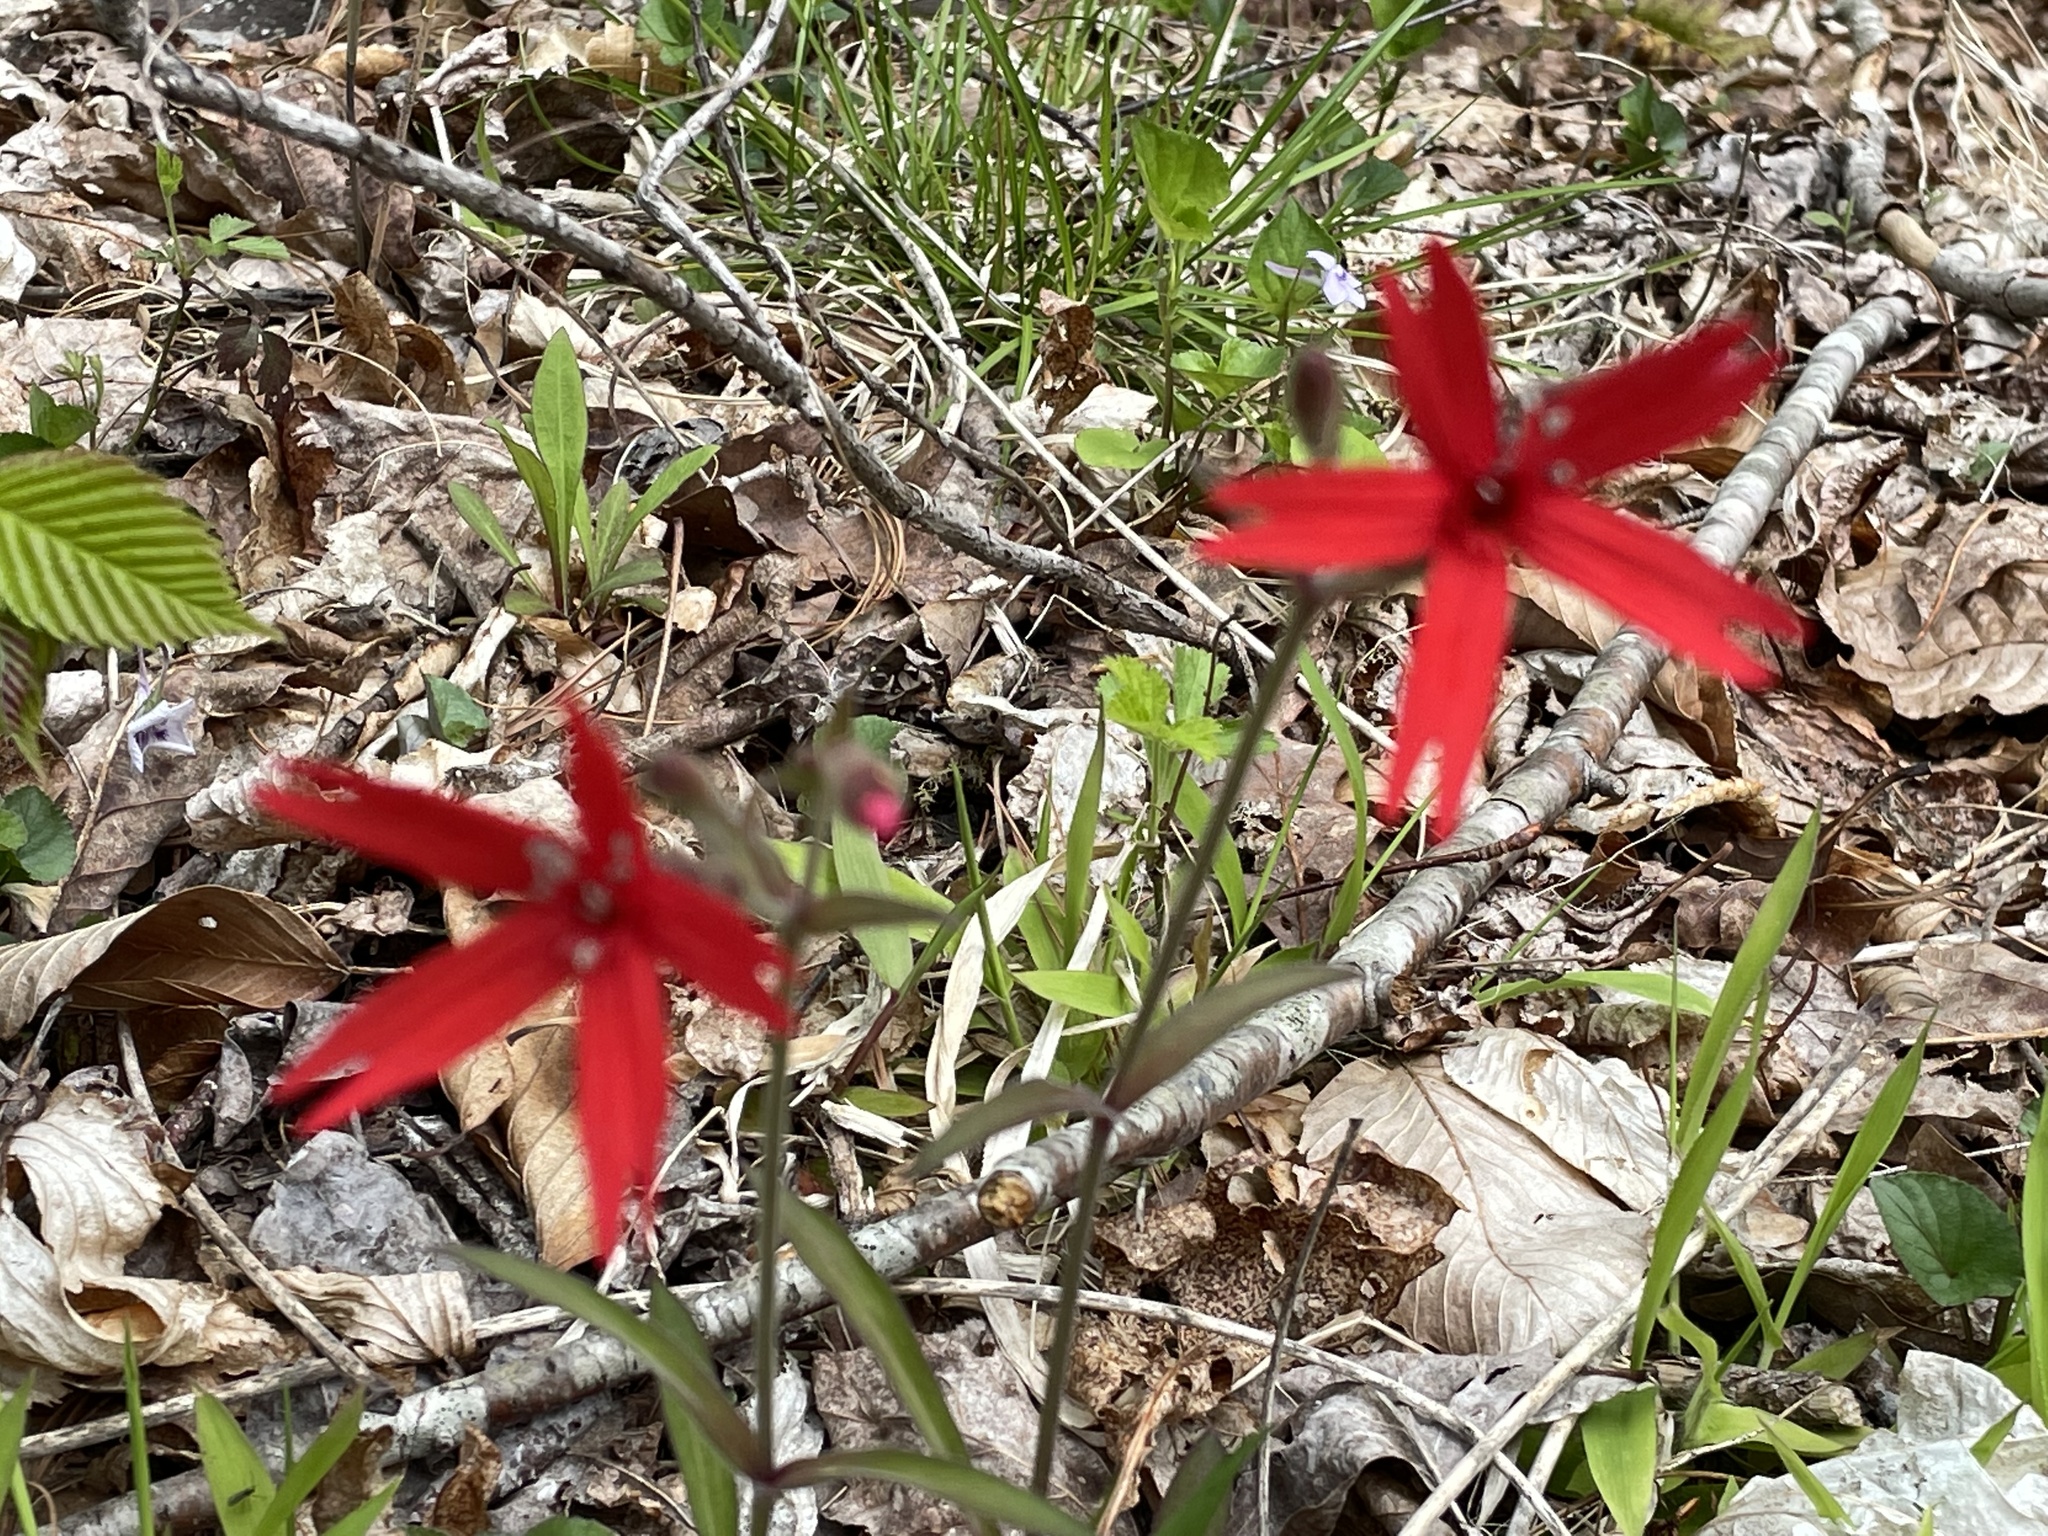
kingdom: Plantae
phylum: Tracheophyta
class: Magnoliopsida
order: Caryophyllales
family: Caryophyllaceae
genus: Silene
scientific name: Silene virginica
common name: Fire-pink
